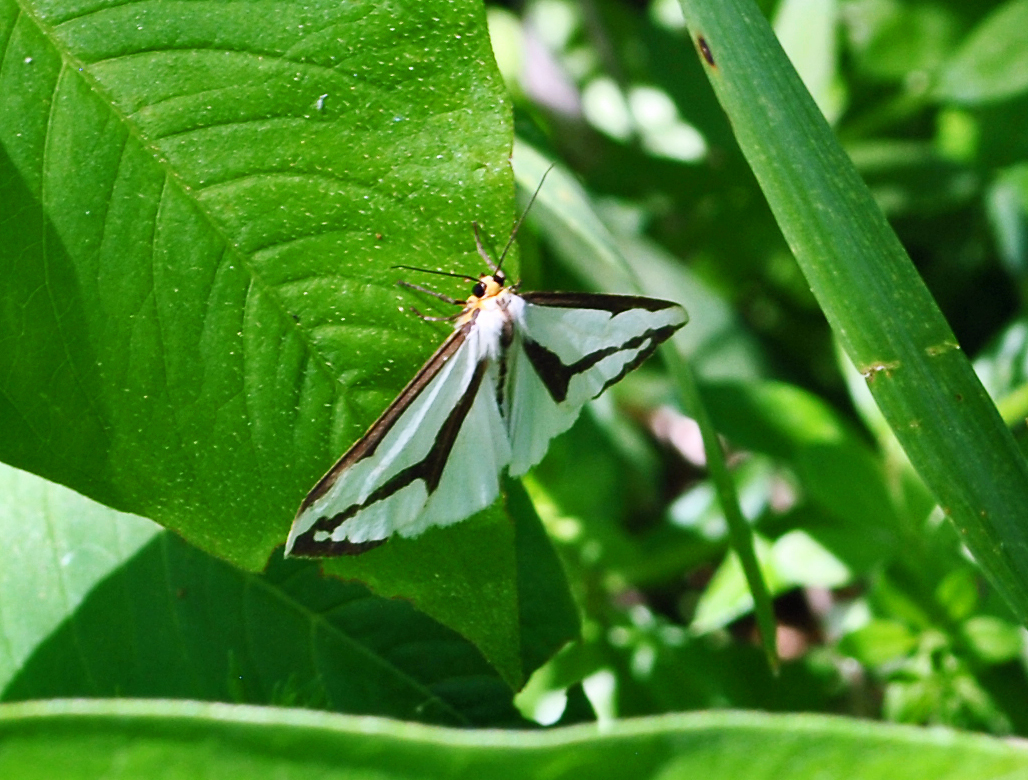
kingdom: Animalia
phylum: Arthropoda
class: Insecta
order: Lepidoptera
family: Erebidae
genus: Haploa
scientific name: Haploa lecontei
